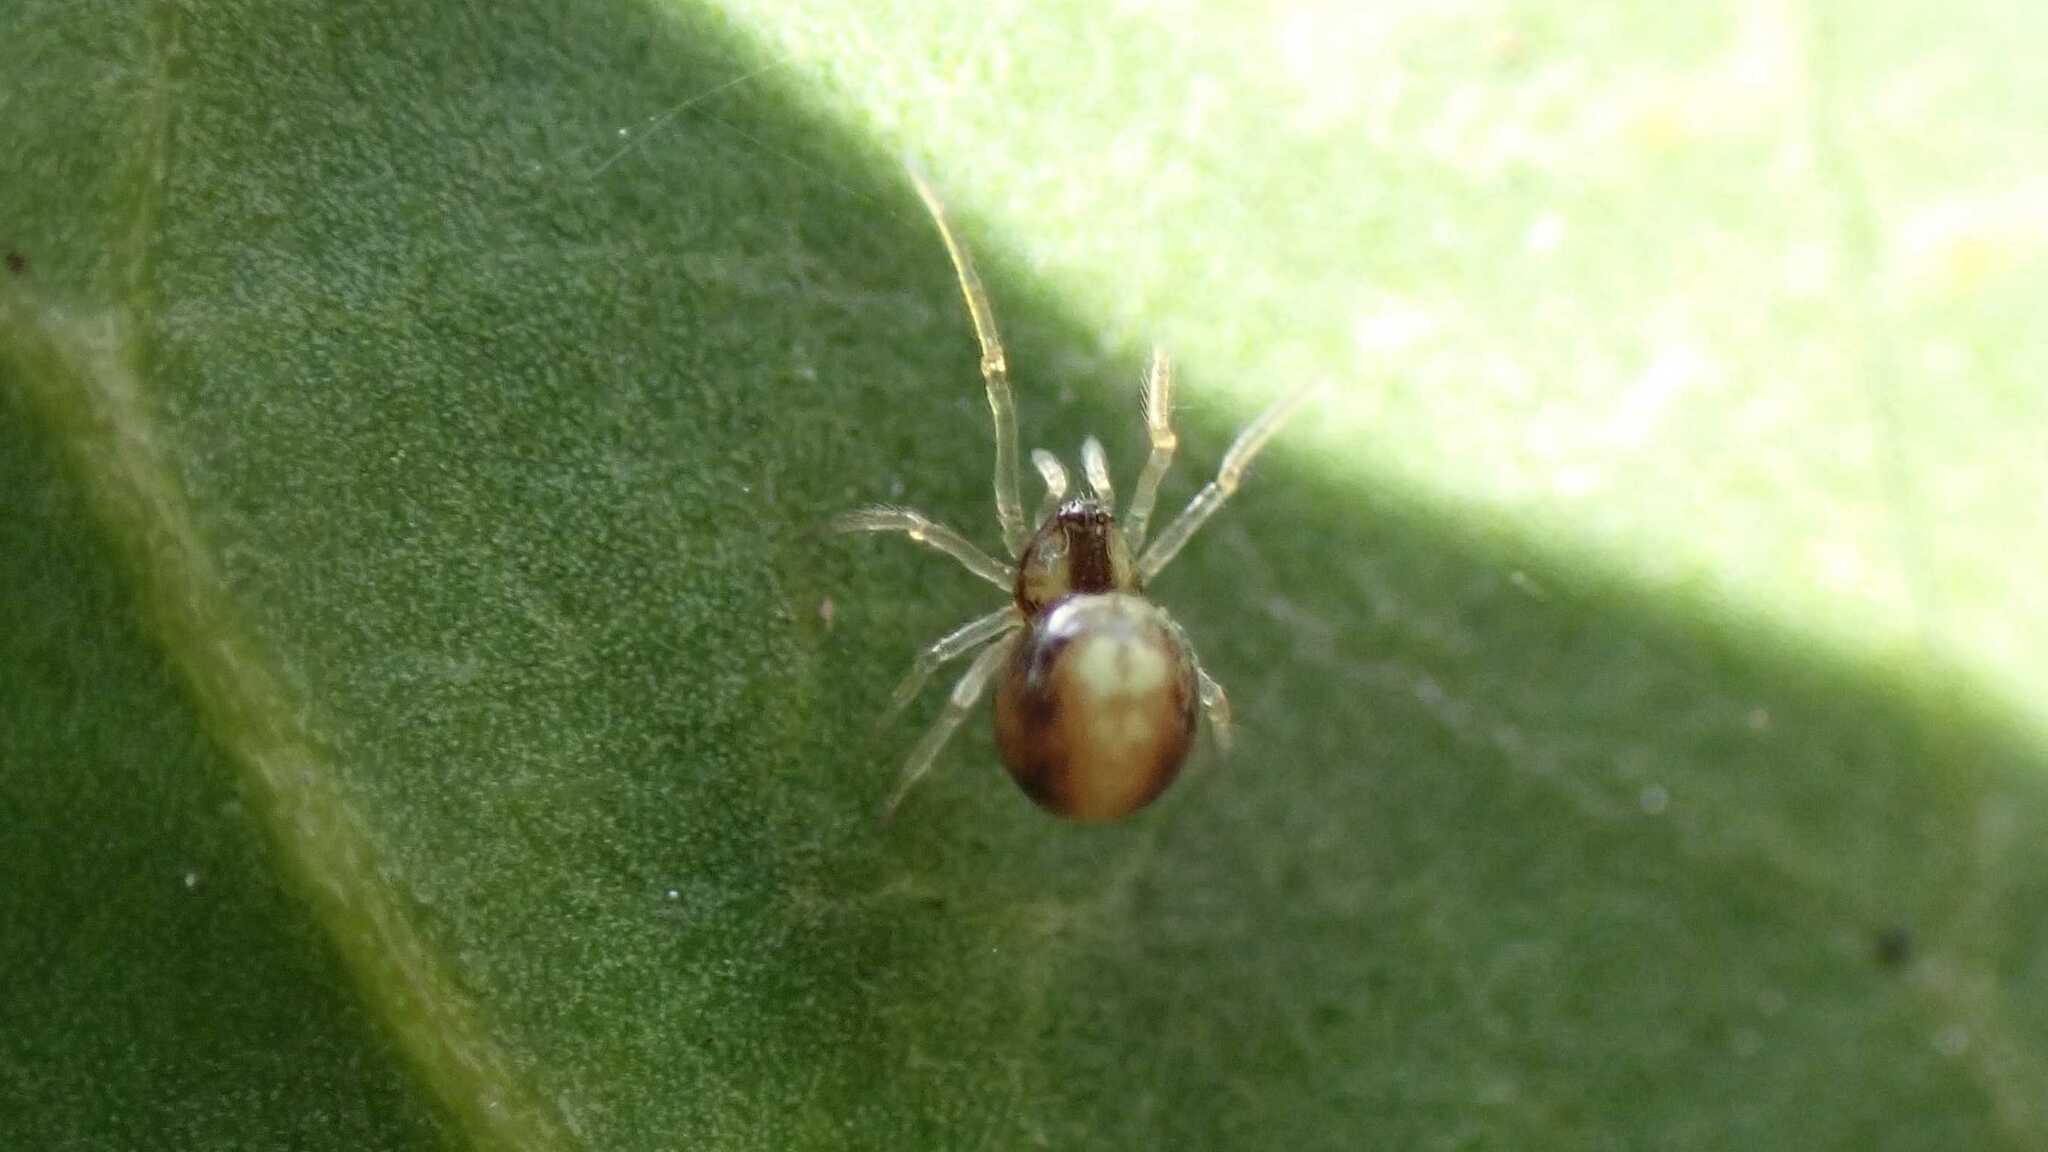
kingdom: Animalia
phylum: Arthropoda
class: Arachnida
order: Araneae
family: Theridiidae
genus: Neottiura
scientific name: Neottiura bimaculata
